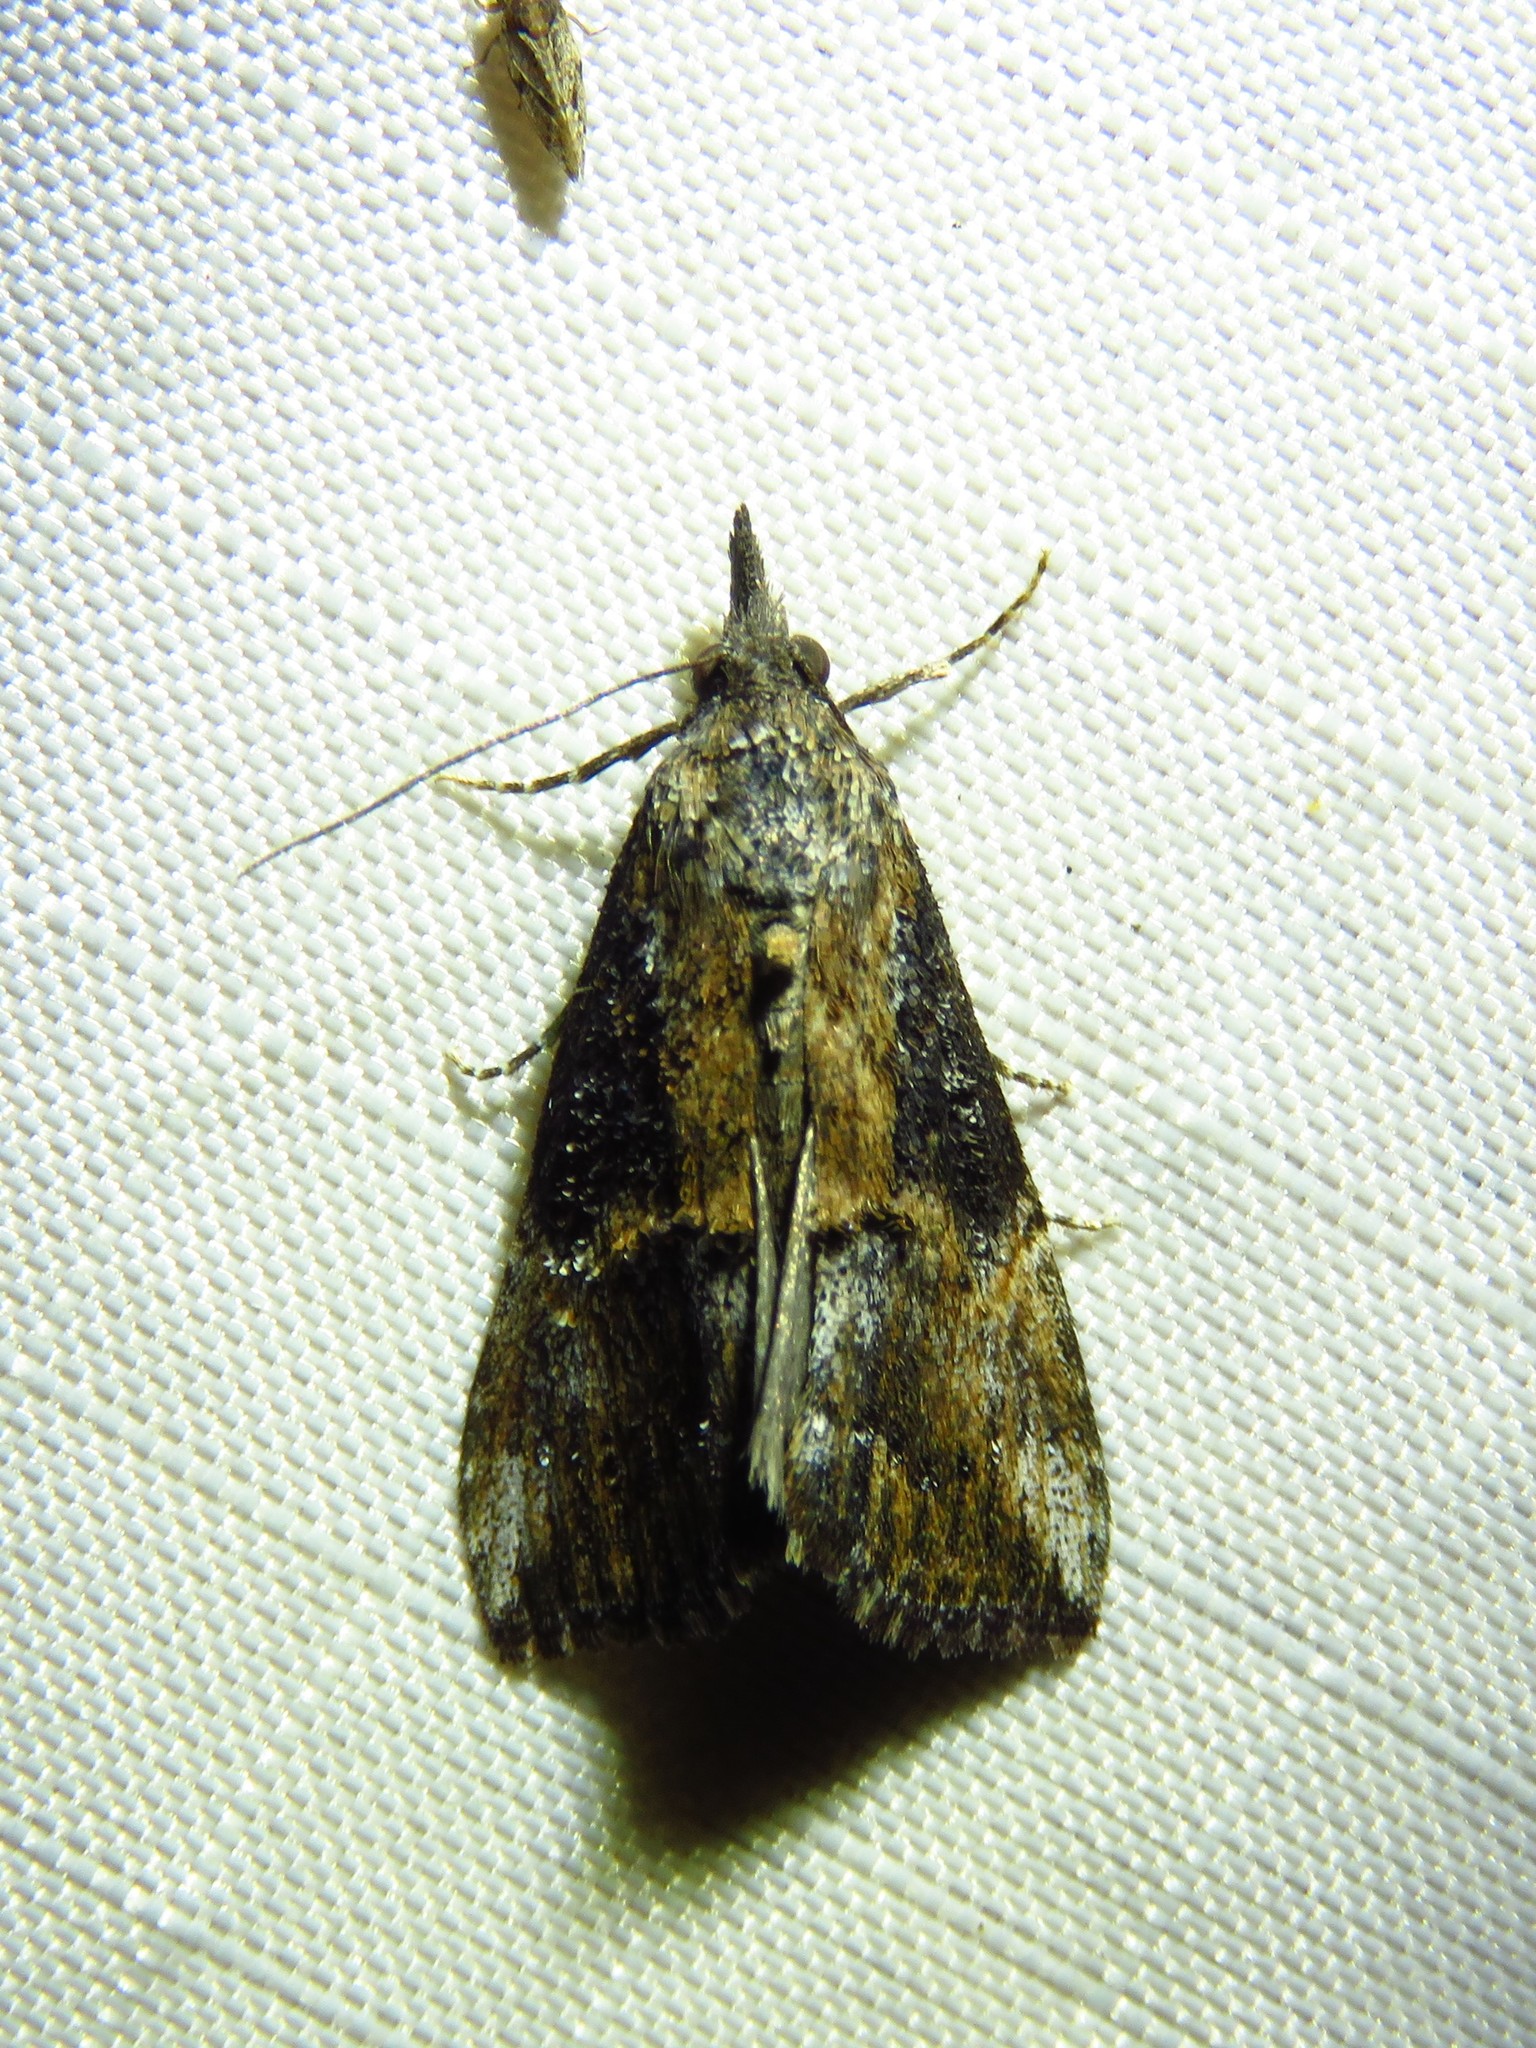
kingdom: Animalia
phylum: Arthropoda
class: Insecta
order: Lepidoptera
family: Erebidae
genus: Hypena
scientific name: Hypena scabra
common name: Green cloverworm
